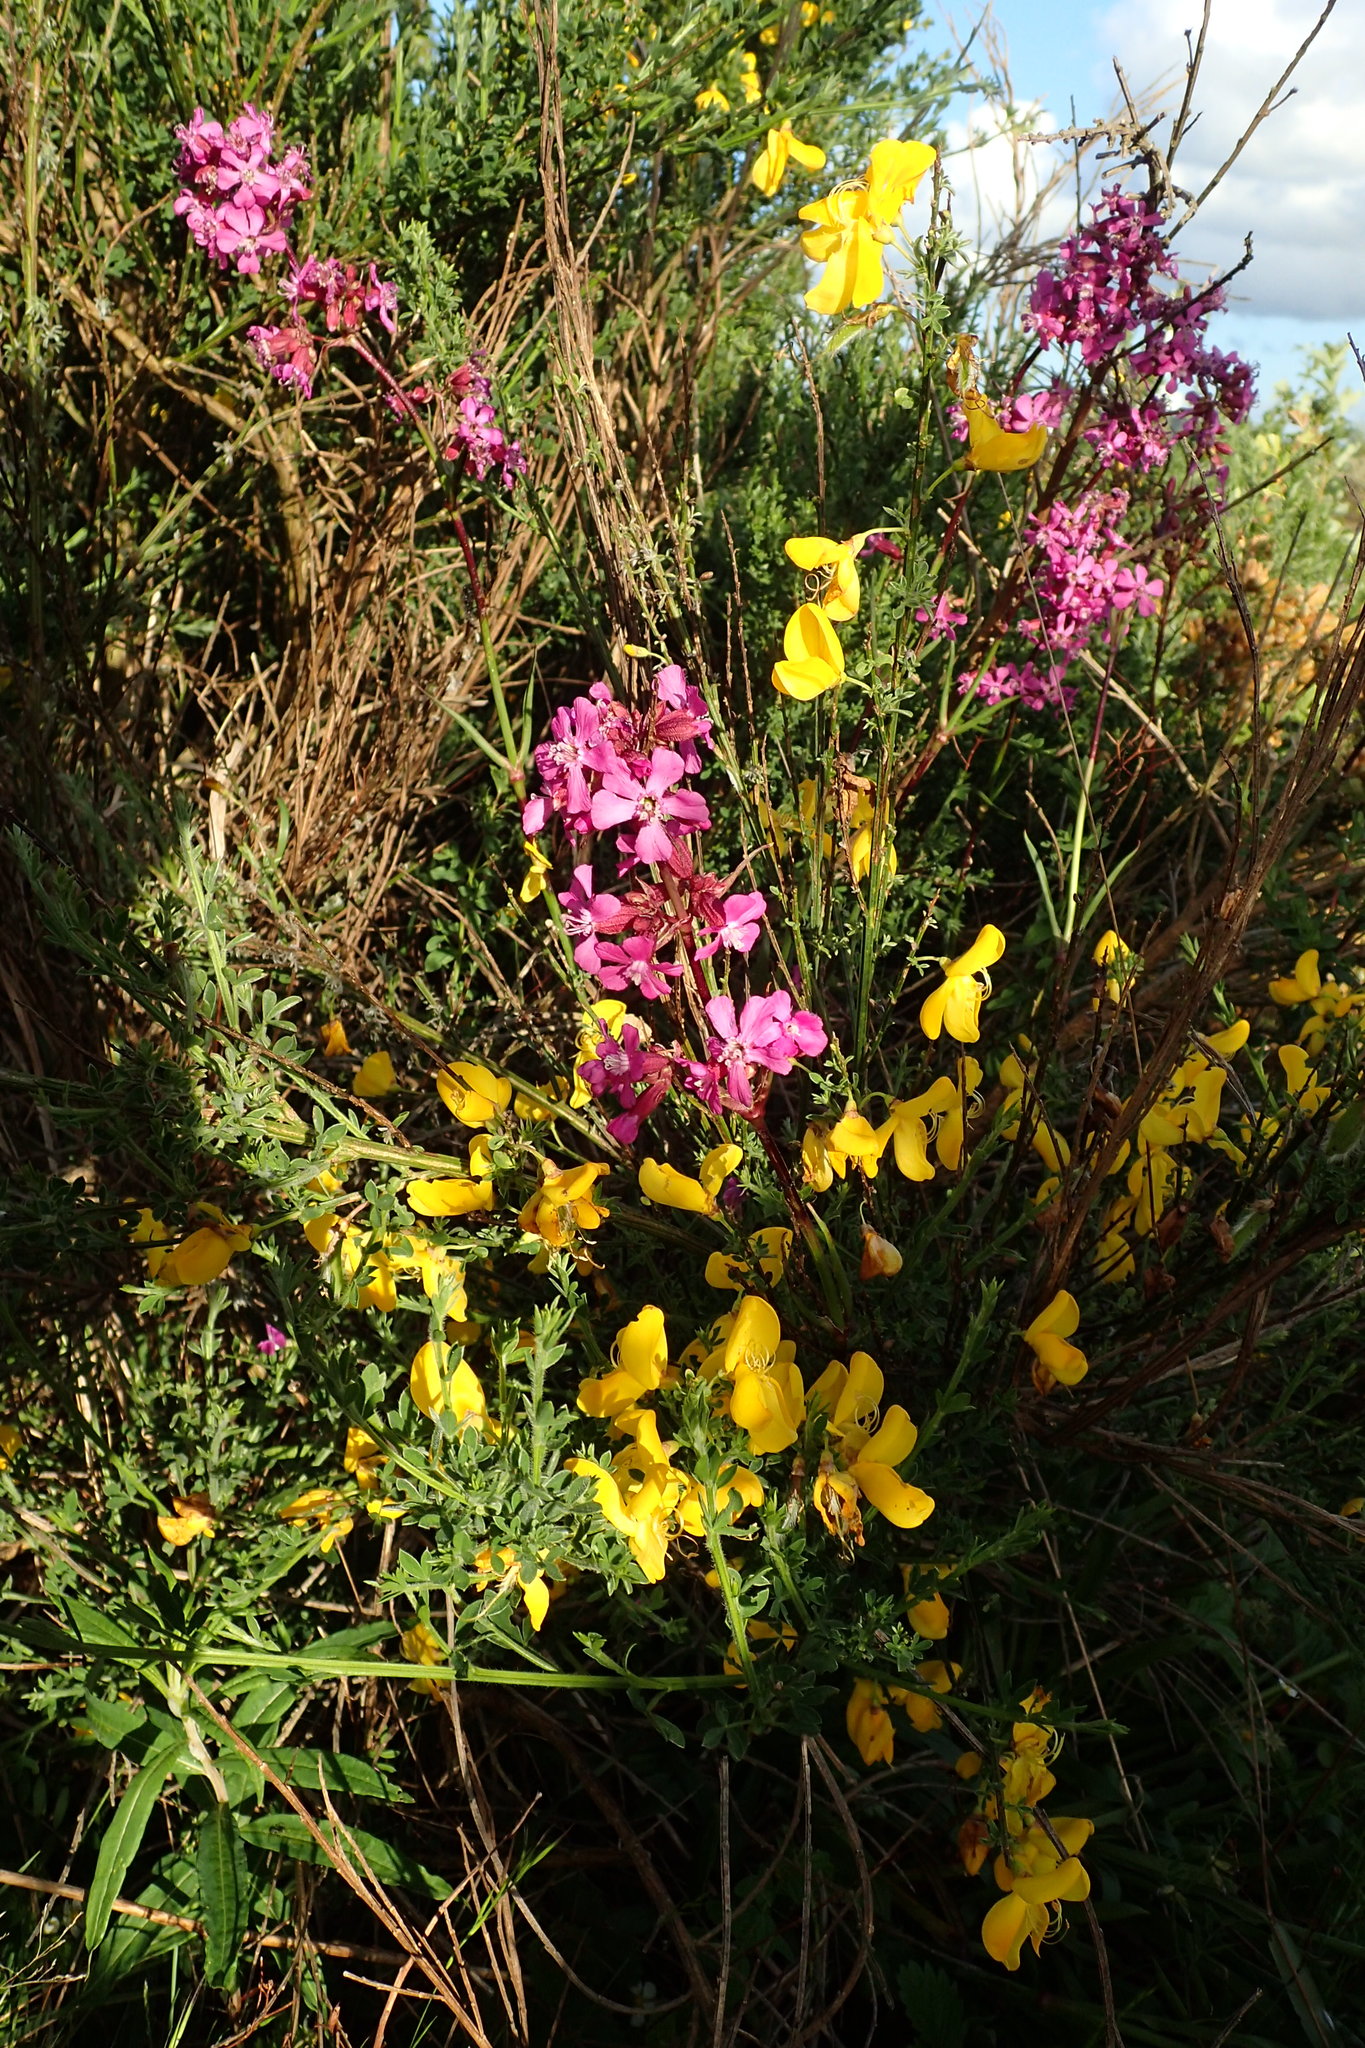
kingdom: Plantae
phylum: Tracheophyta
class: Magnoliopsida
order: Caryophyllales
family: Caryophyllaceae
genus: Viscaria
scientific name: Viscaria vulgaris
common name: Clammy campion
